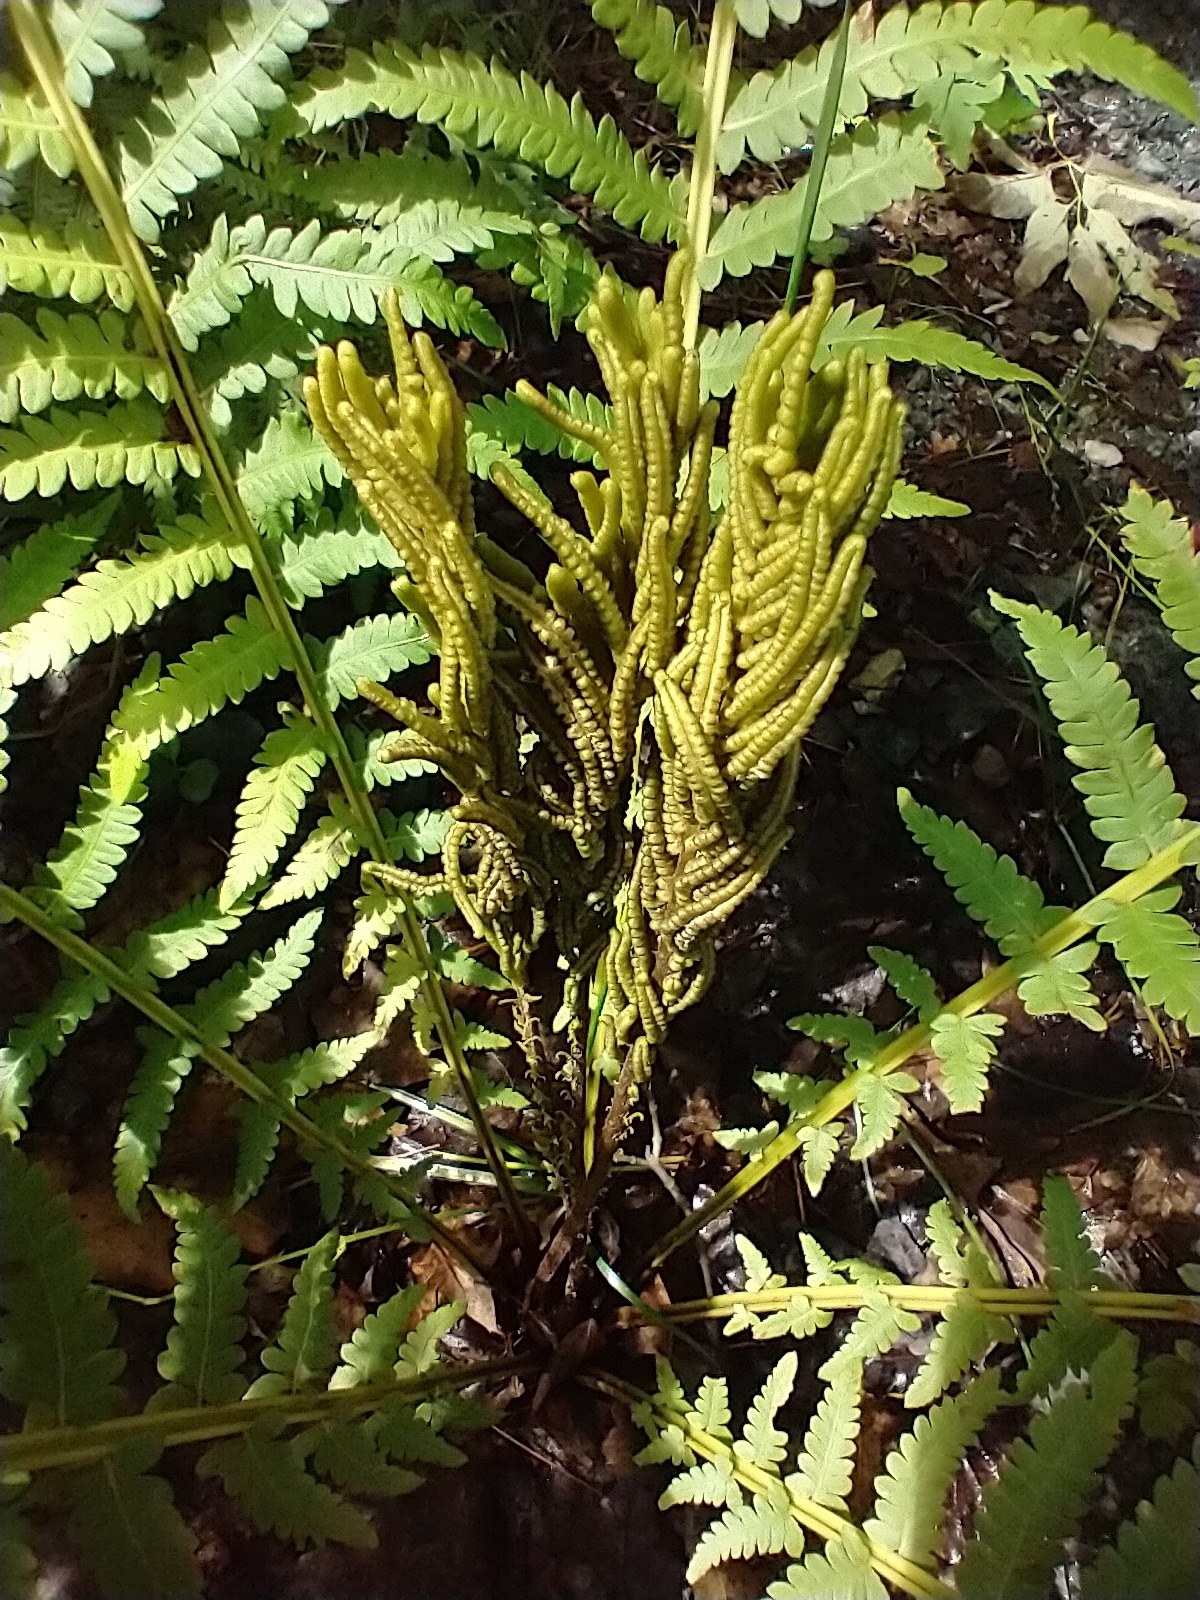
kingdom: Plantae
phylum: Tracheophyta
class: Polypodiopsida
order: Polypodiales
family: Onocleaceae
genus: Matteuccia
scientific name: Matteuccia struthiopteris
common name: Ostrich fern
